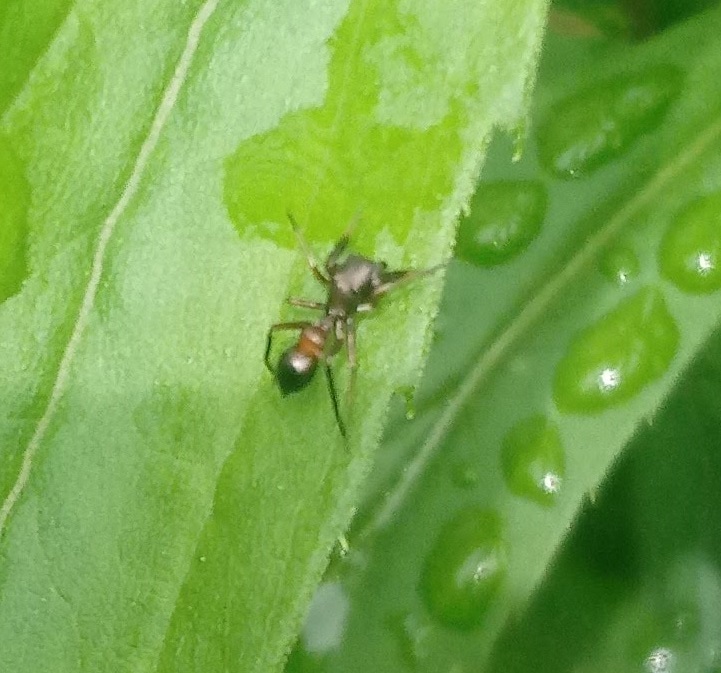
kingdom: Animalia
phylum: Arthropoda
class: Arachnida
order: Araneae
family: Salticidae
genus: Peckhamia
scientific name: Peckhamia
